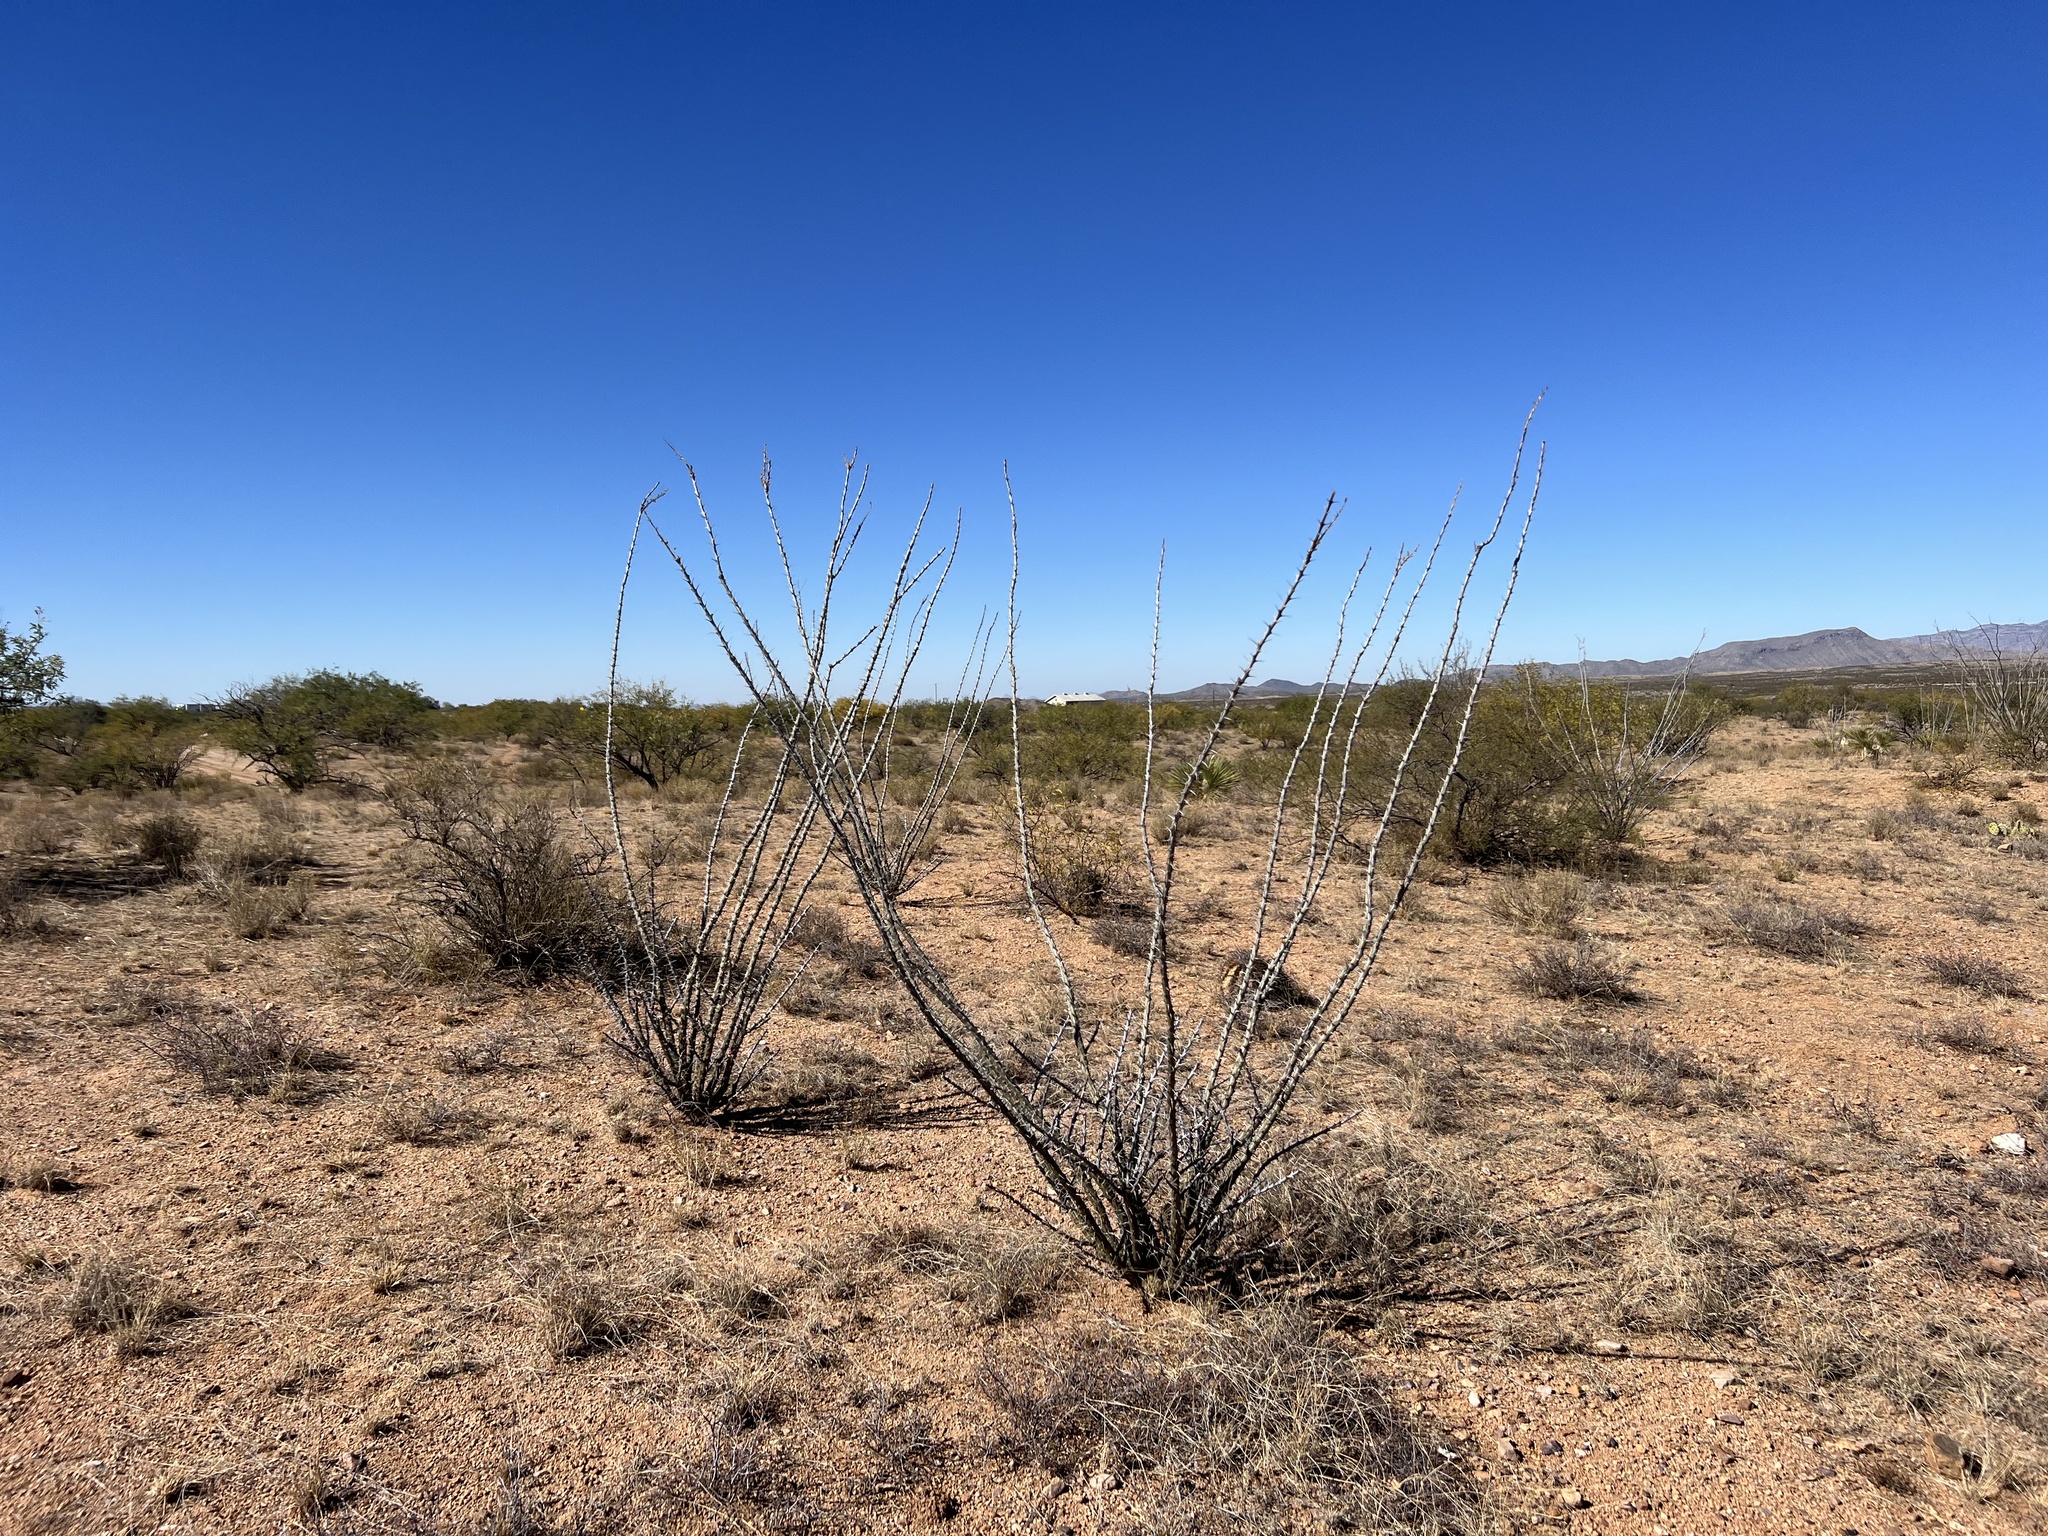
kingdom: Plantae
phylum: Tracheophyta
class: Magnoliopsida
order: Ericales
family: Fouquieriaceae
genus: Fouquieria
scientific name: Fouquieria splendens
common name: Vine-cactus
